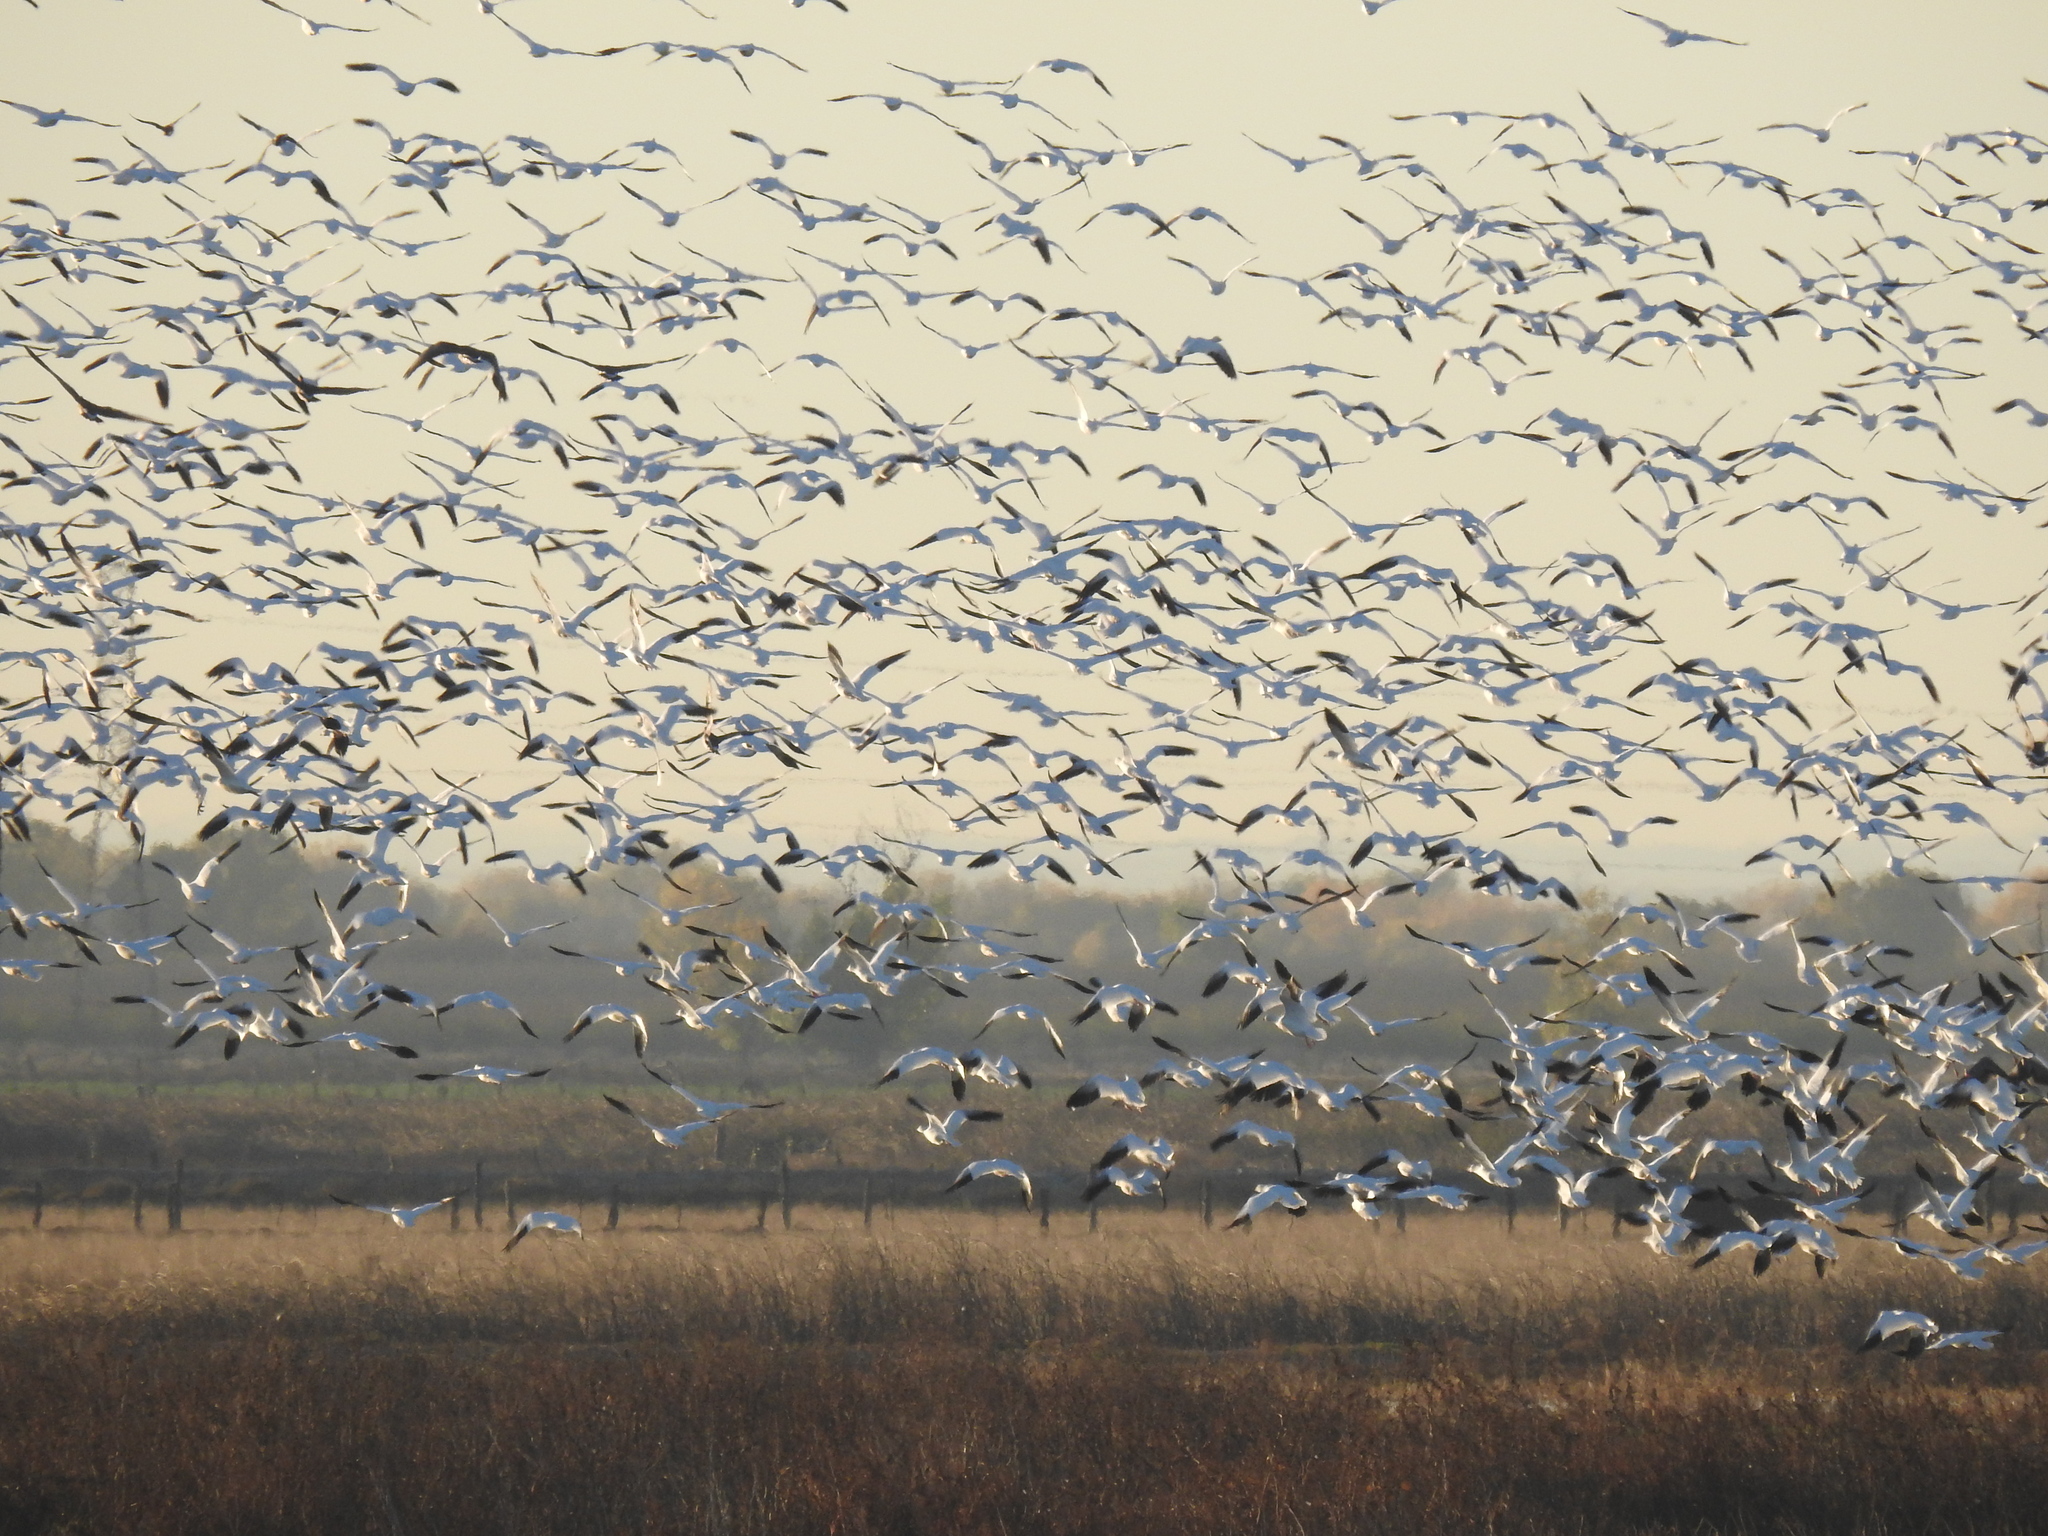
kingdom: Animalia
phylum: Chordata
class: Aves
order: Anseriformes
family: Anatidae
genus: Anser
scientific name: Anser caerulescens
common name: Snow goose
